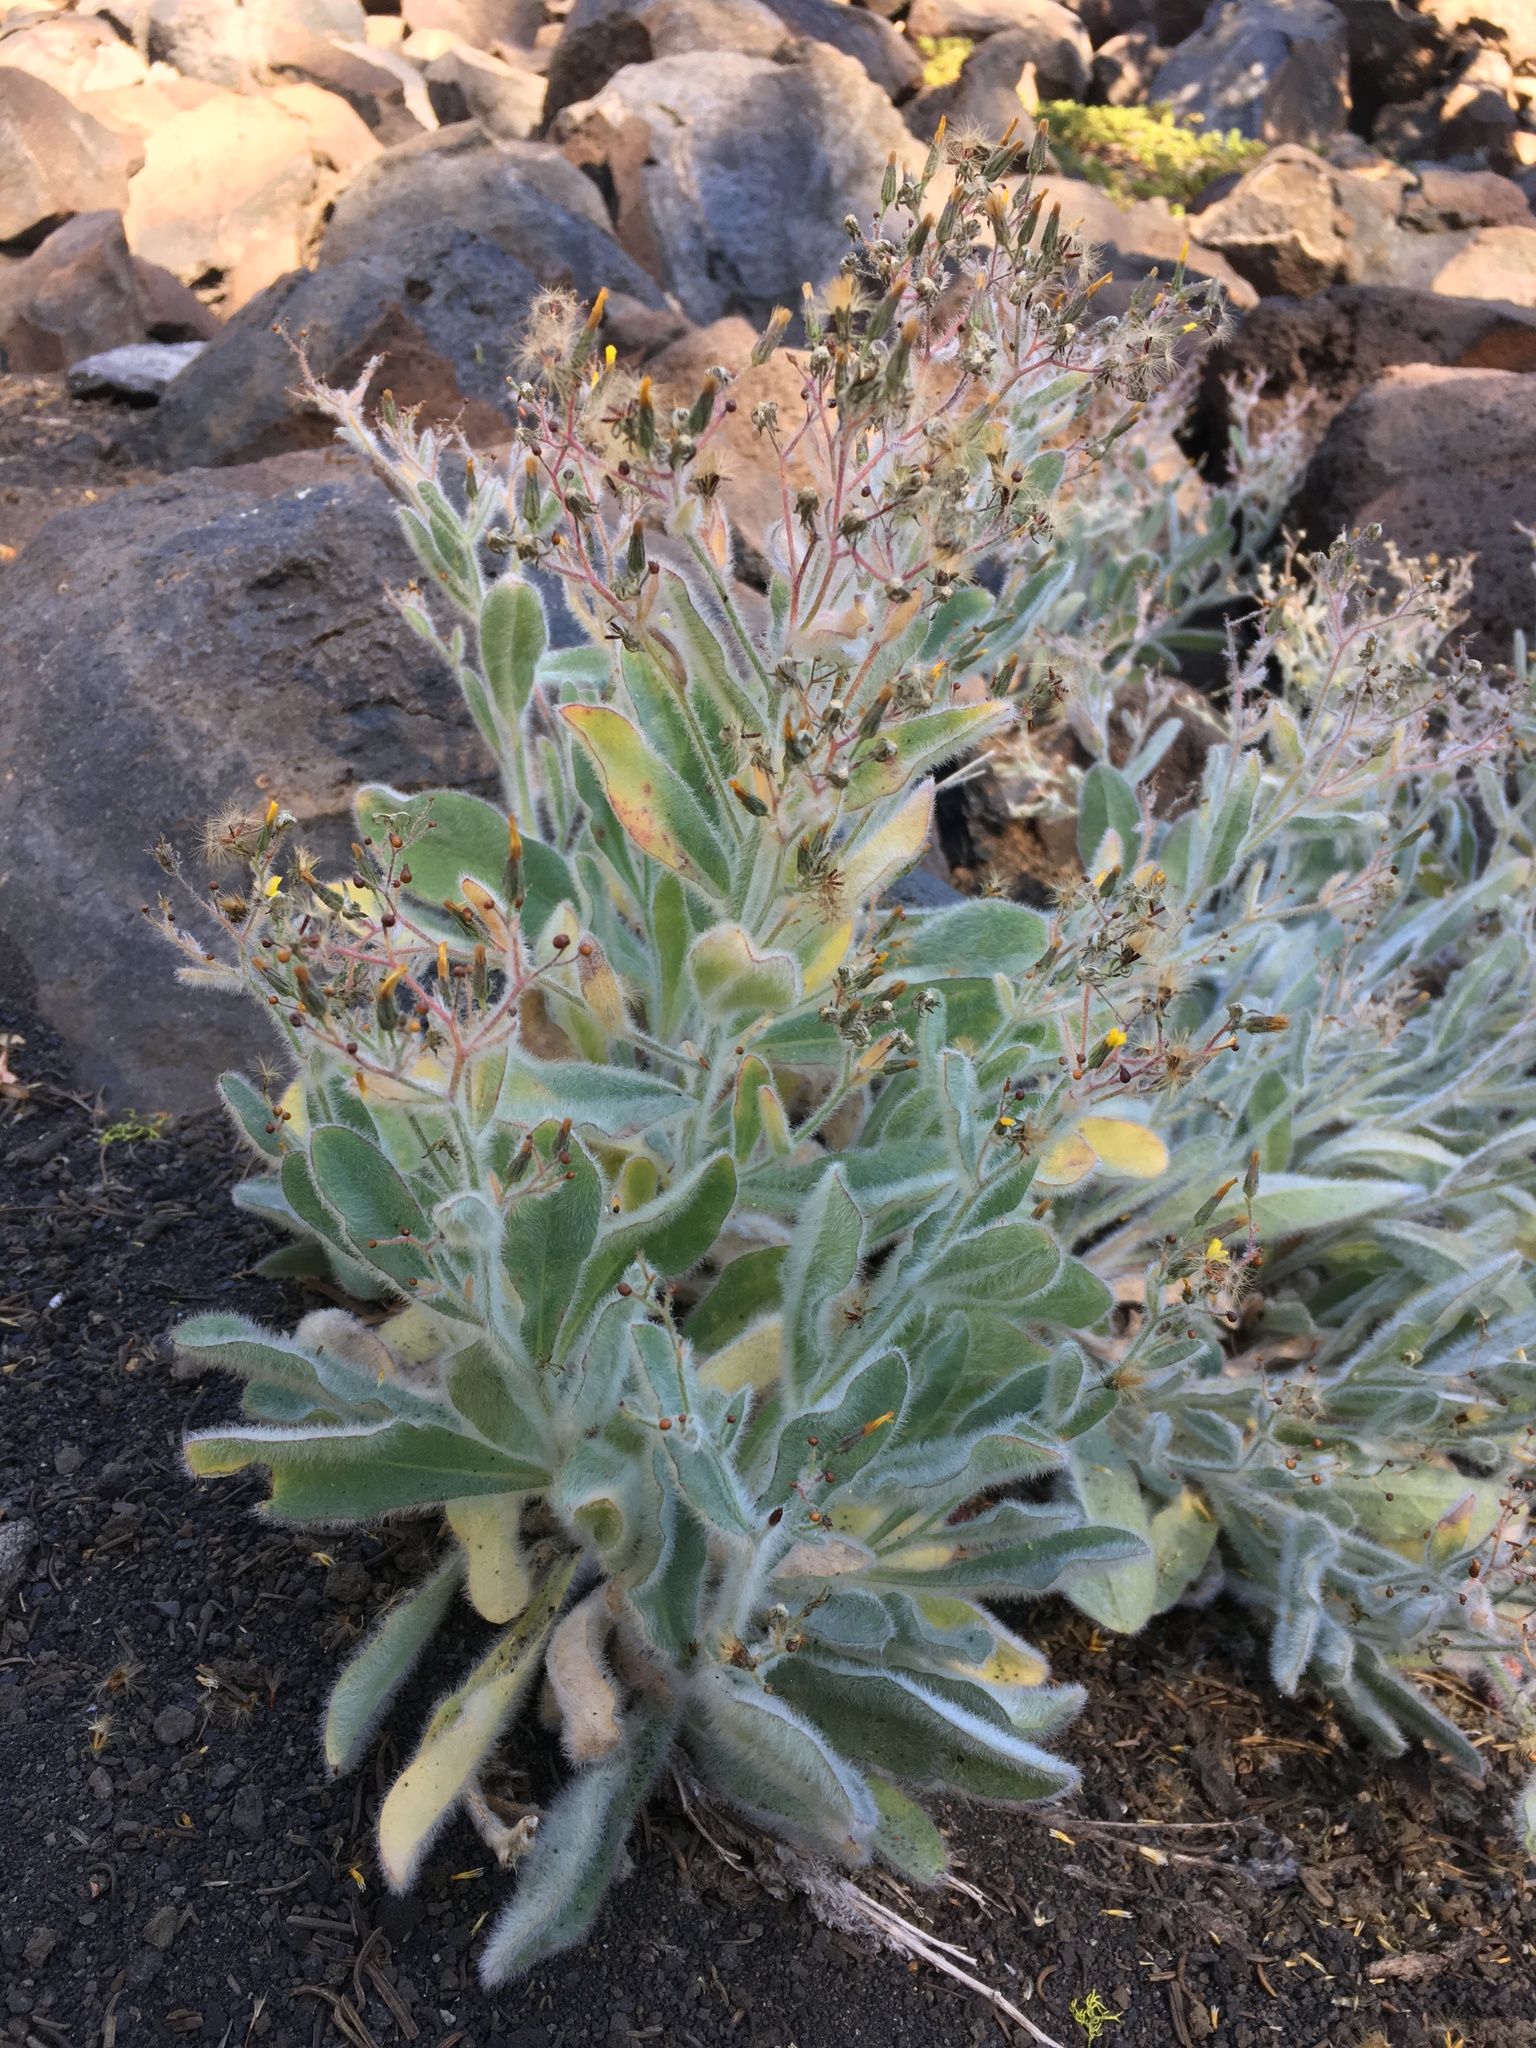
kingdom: Plantae
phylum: Tracheophyta
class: Magnoliopsida
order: Asterales
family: Asteraceae
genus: Hieracium
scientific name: Hieracium horridum
